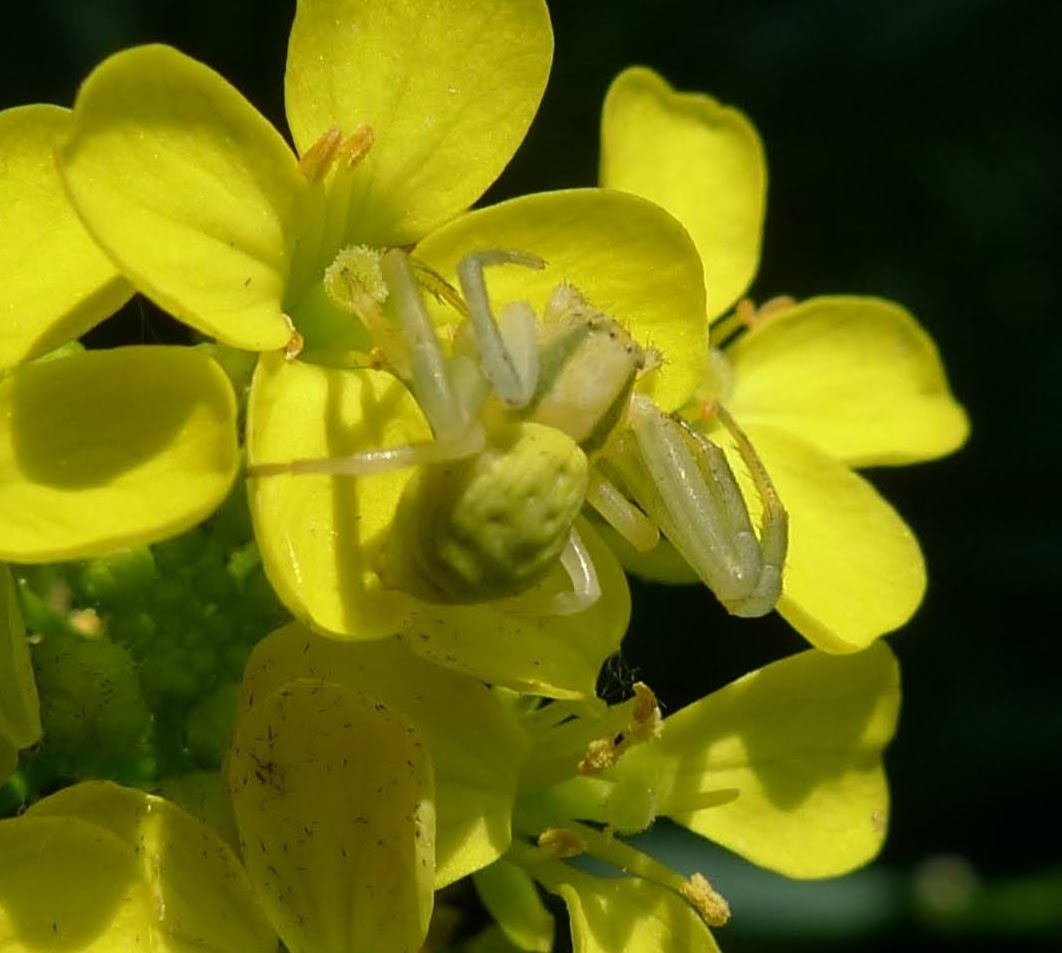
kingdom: Animalia
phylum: Arthropoda
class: Arachnida
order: Araneae
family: Thomisidae
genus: Misumena
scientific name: Misumena vatia
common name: Goldenrod crab spider
